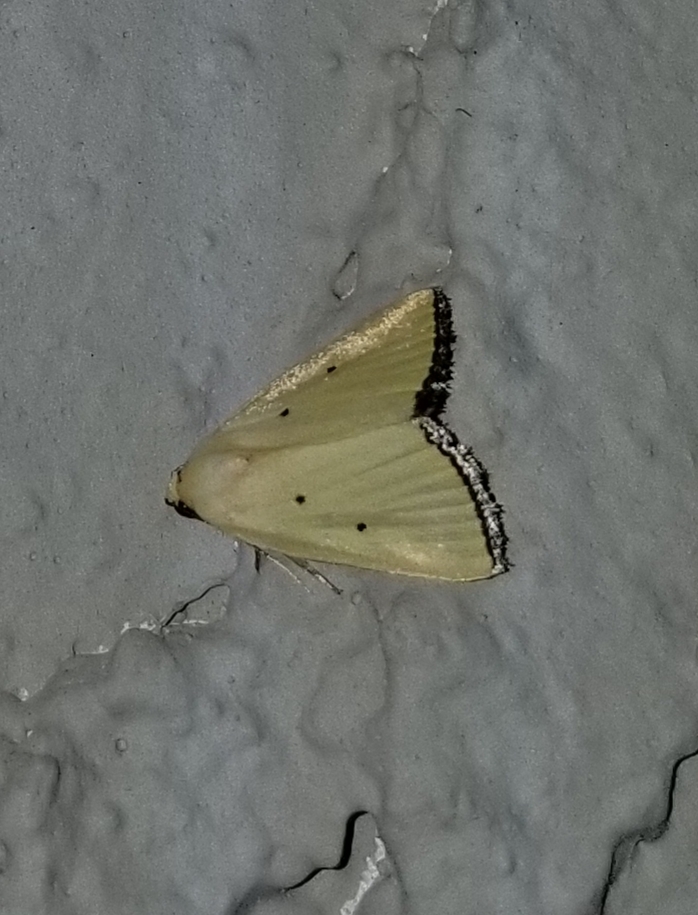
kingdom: Animalia
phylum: Arthropoda
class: Insecta
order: Lepidoptera
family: Noctuidae
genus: Marimatha
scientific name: Marimatha nigrofimbria
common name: Black-bordered lemon moth
